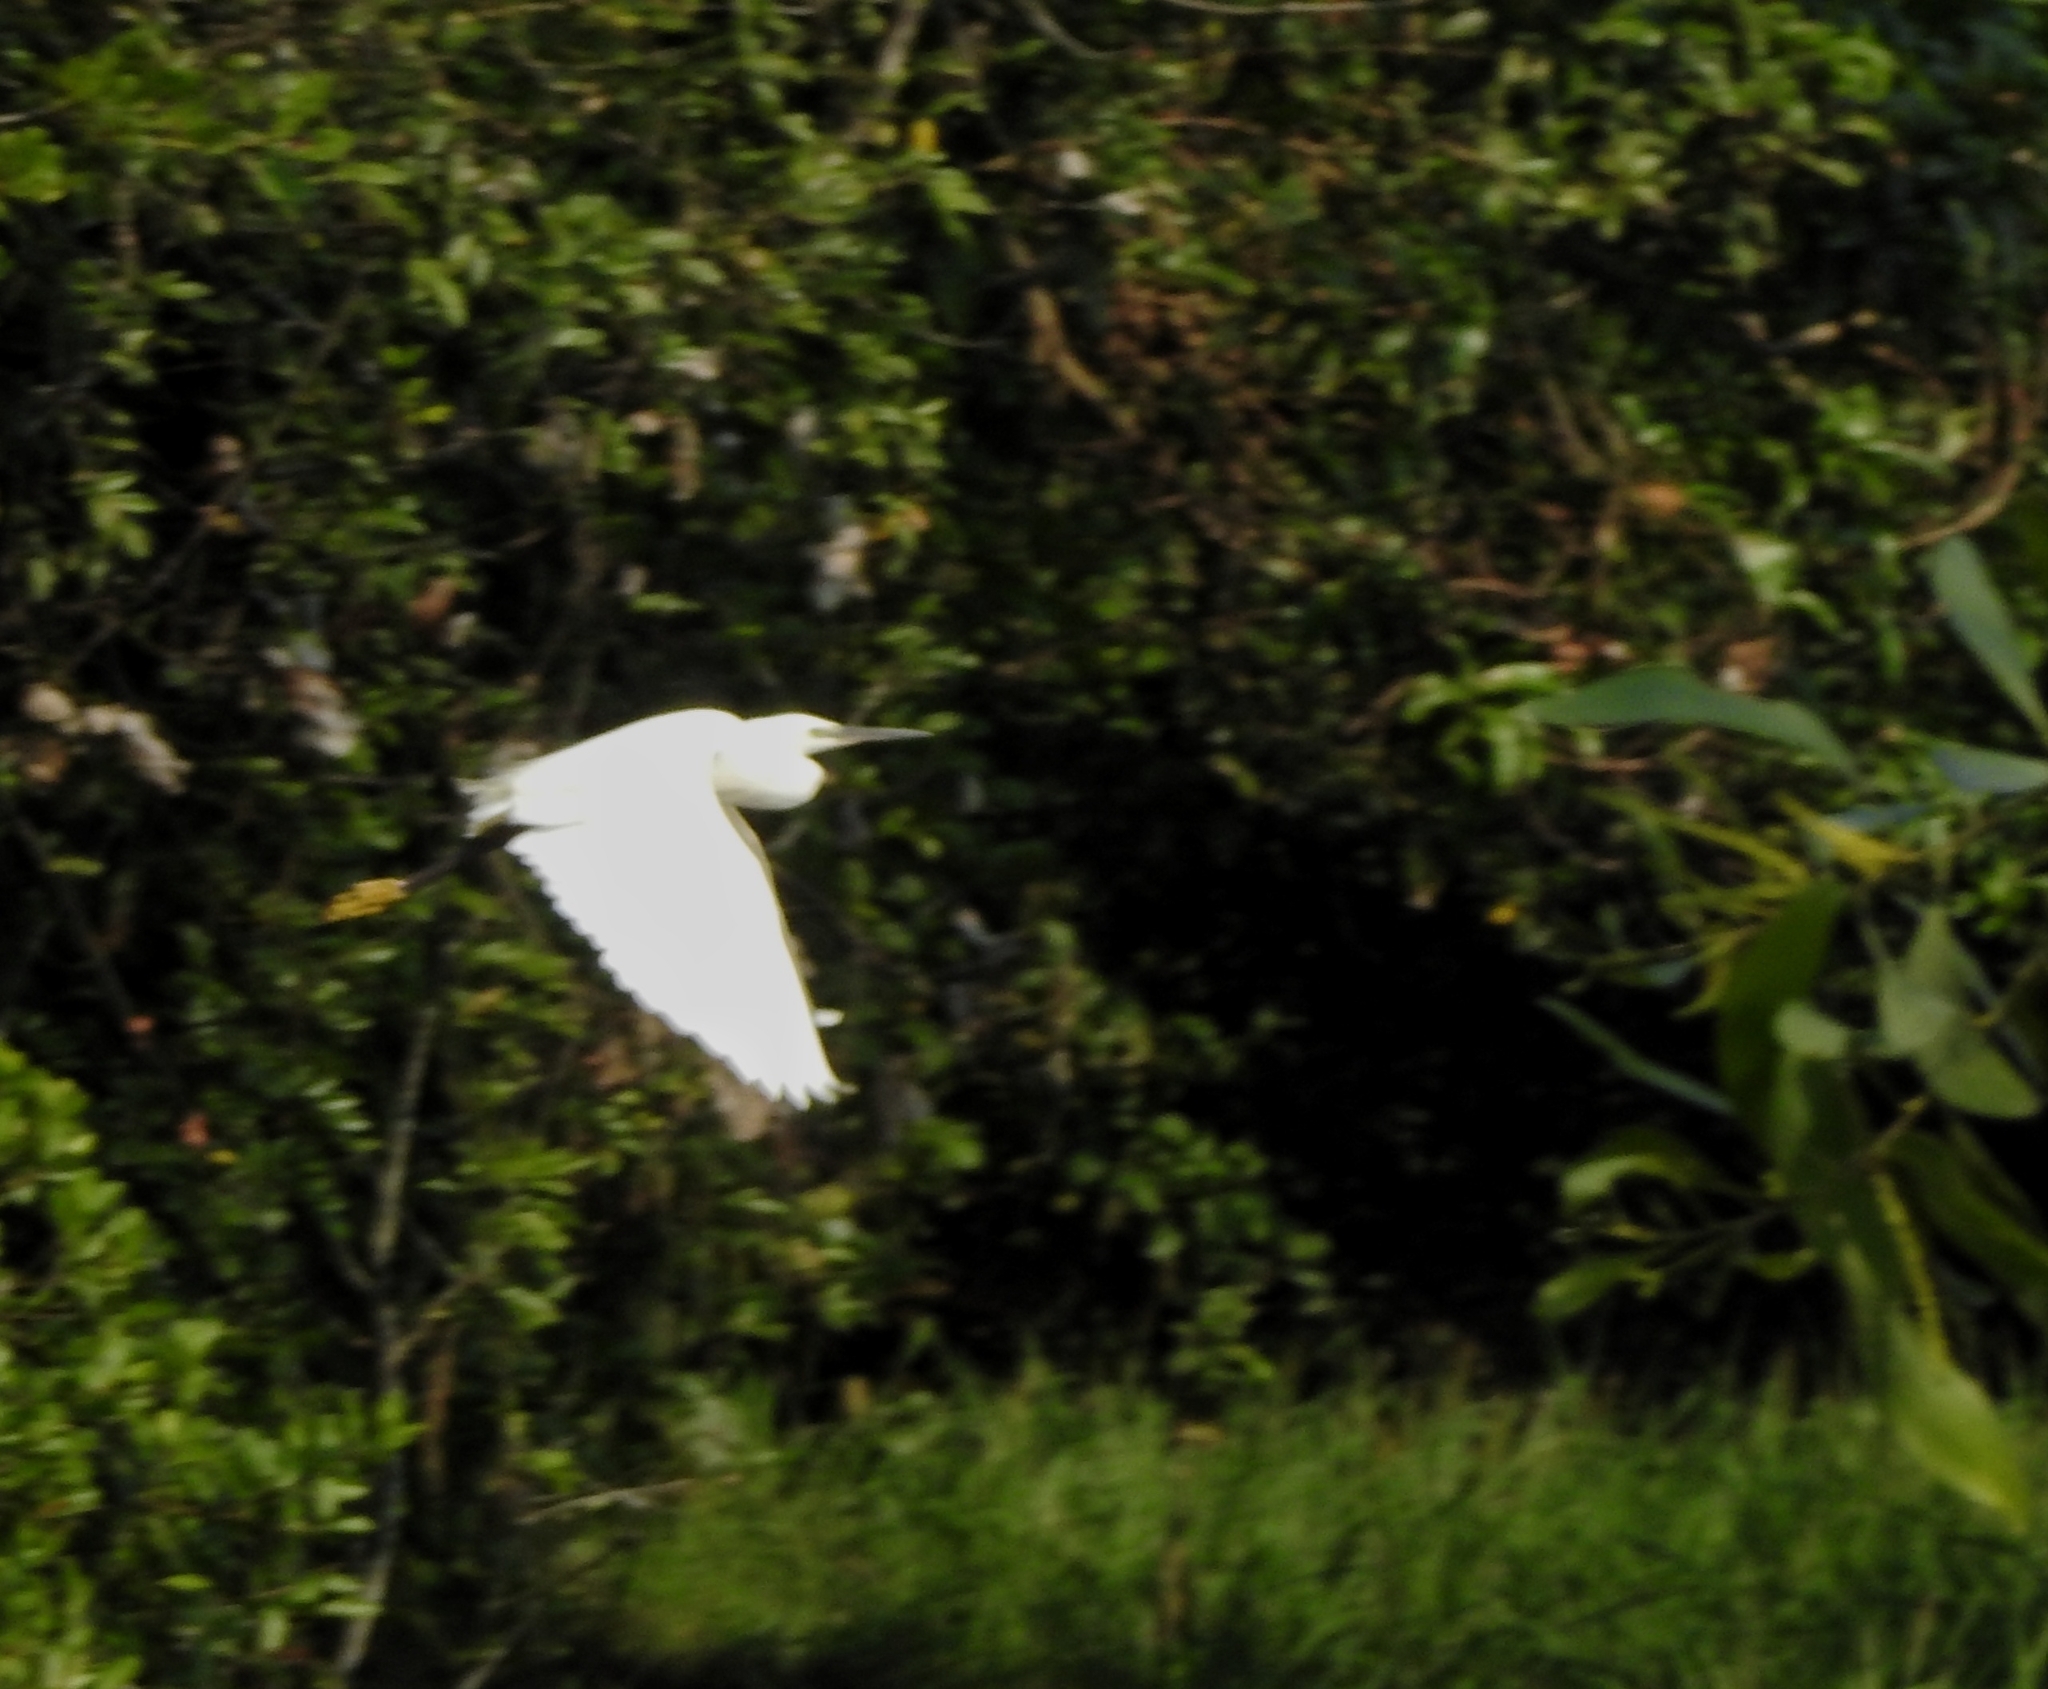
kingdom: Animalia
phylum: Chordata
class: Aves
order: Pelecaniformes
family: Ardeidae
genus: Egretta
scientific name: Egretta garzetta
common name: Little egret
